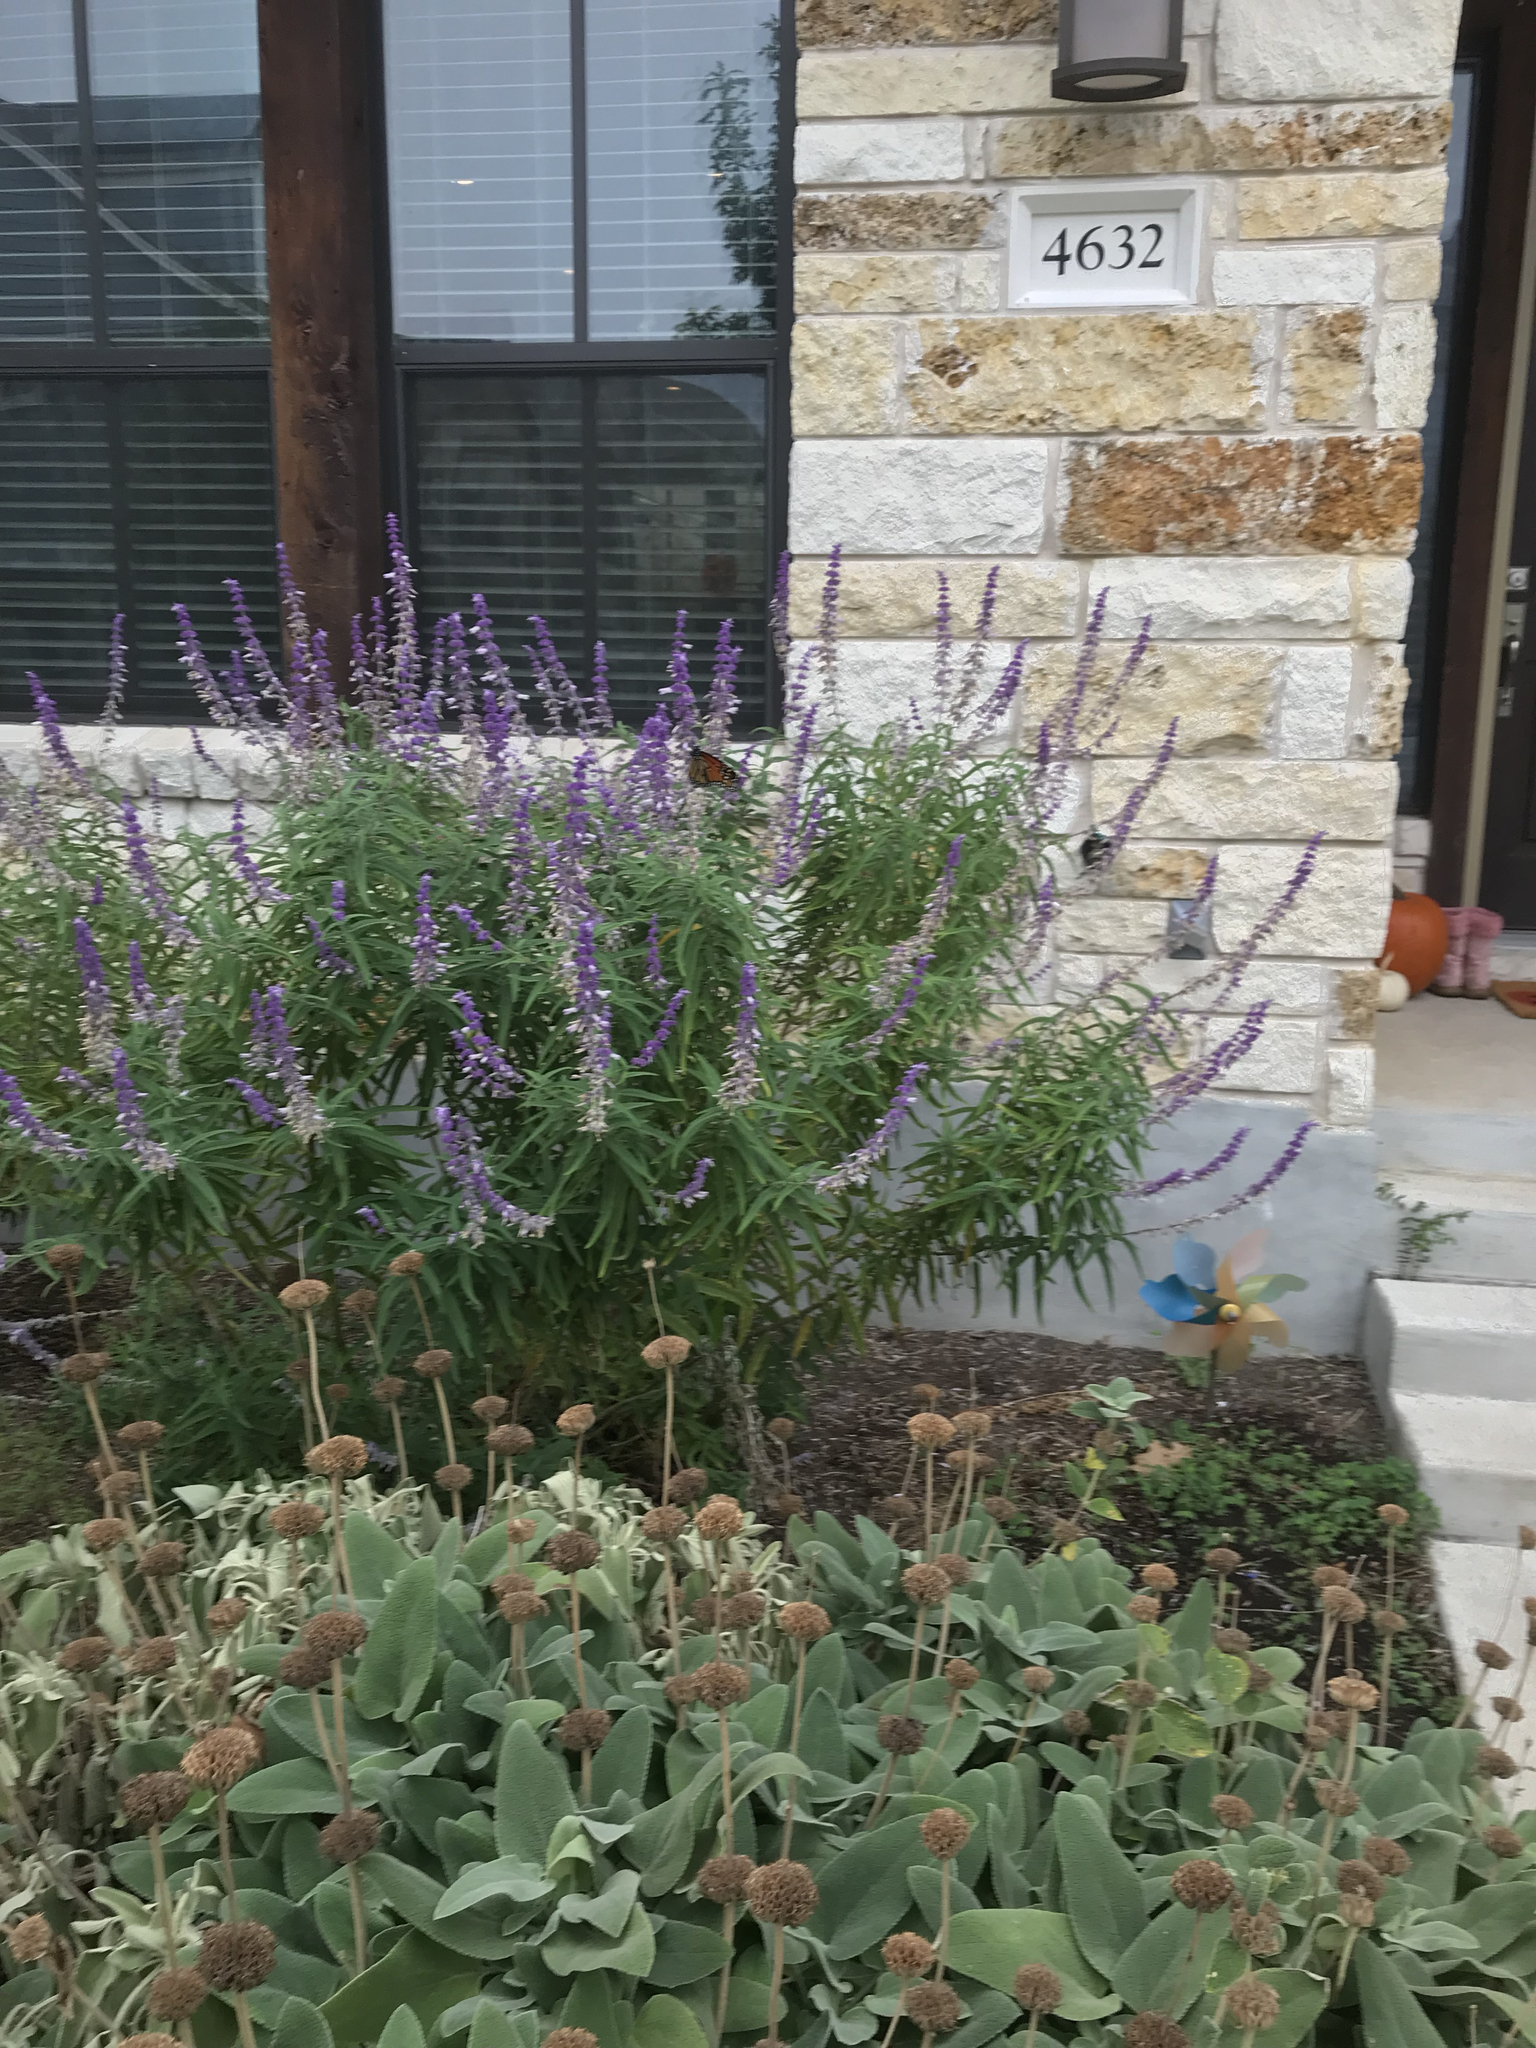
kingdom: Animalia
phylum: Arthropoda
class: Insecta
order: Lepidoptera
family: Nymphalidae
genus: Danaus
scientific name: Danaus plexippus
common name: Monarch
